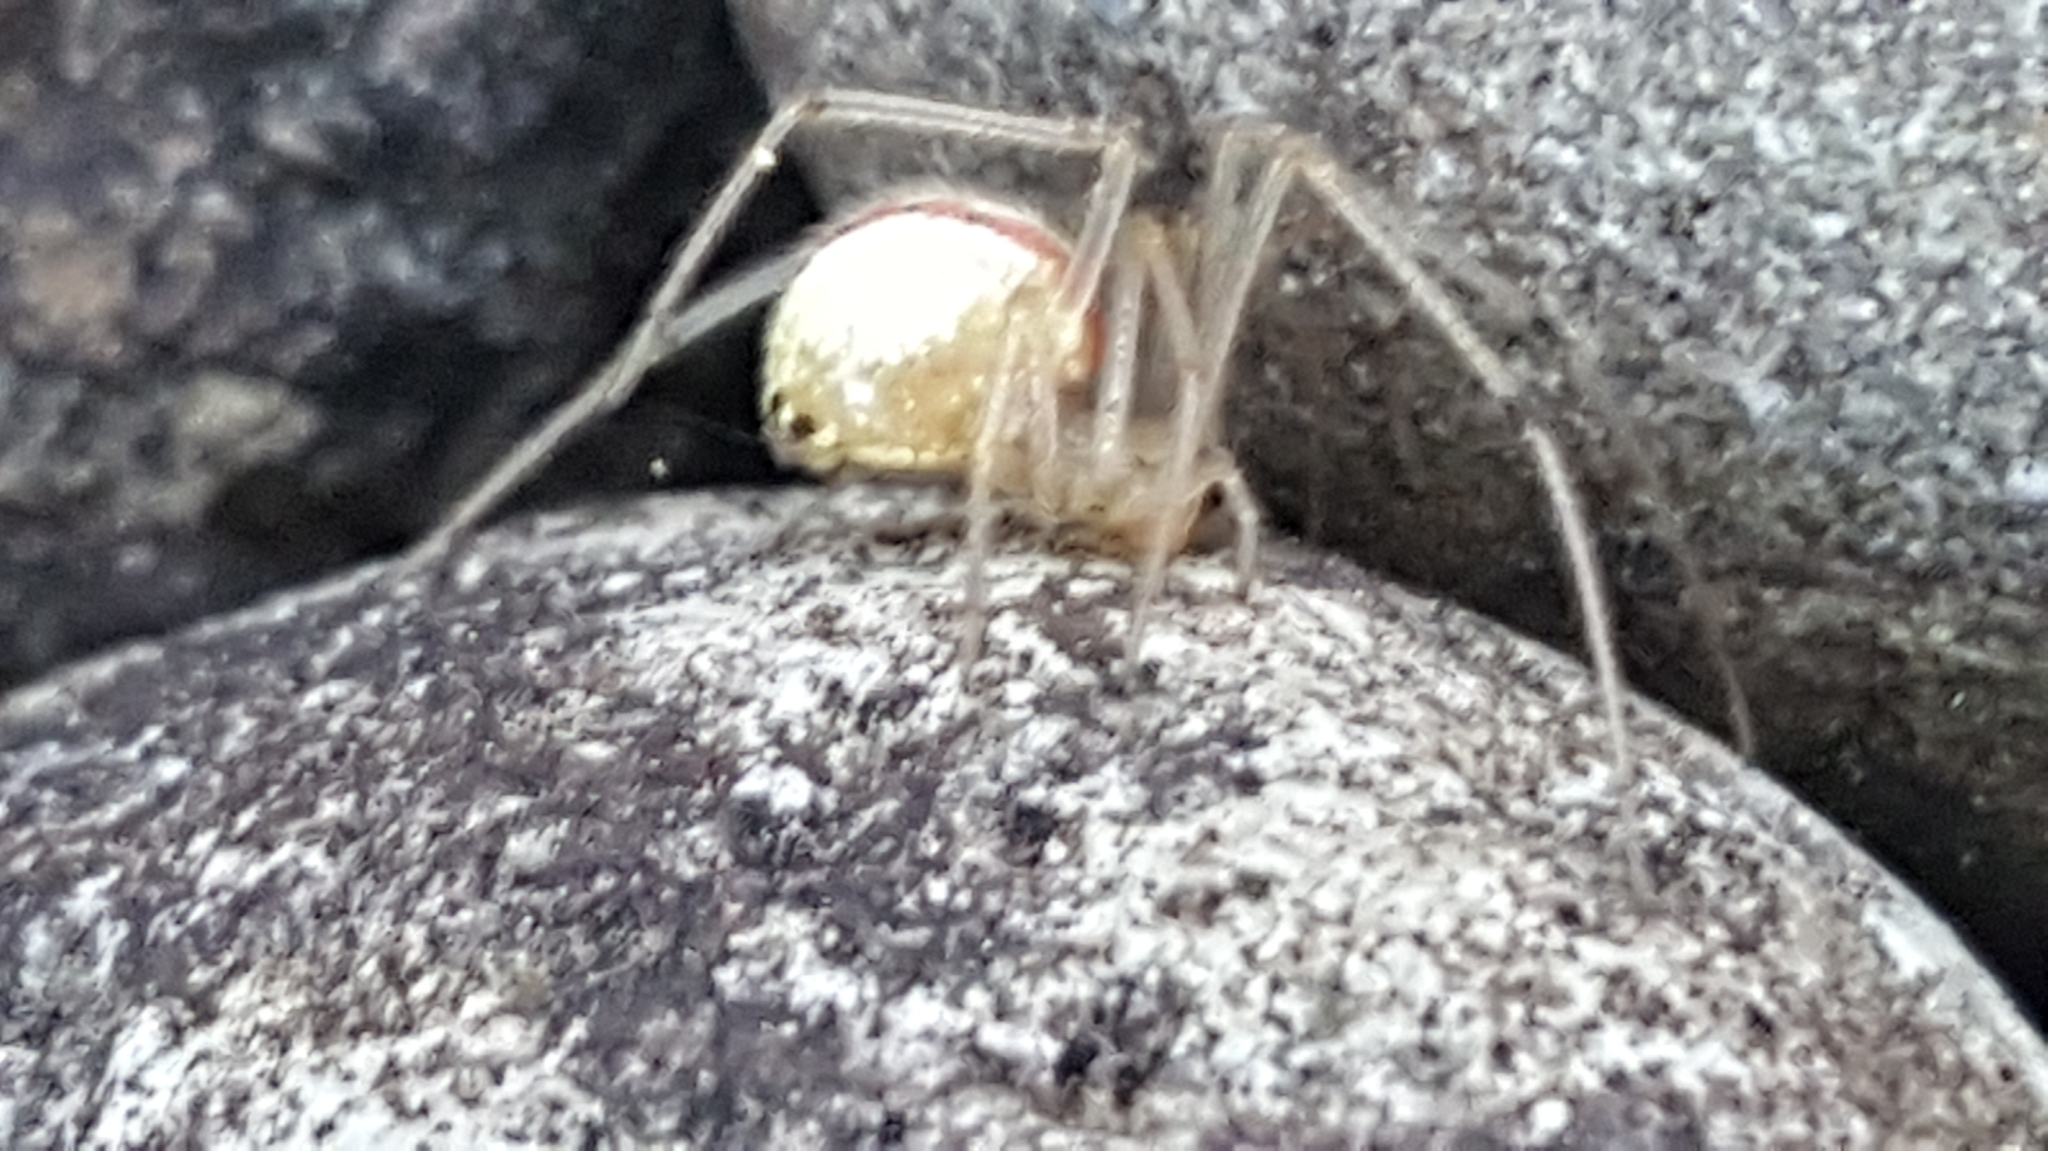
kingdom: Animalia
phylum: Arthropoda
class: Arachnida
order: Araneae
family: Theridiidae
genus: Enoplognatha
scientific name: Enoplognatha ovata
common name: Common candy-striped spider
